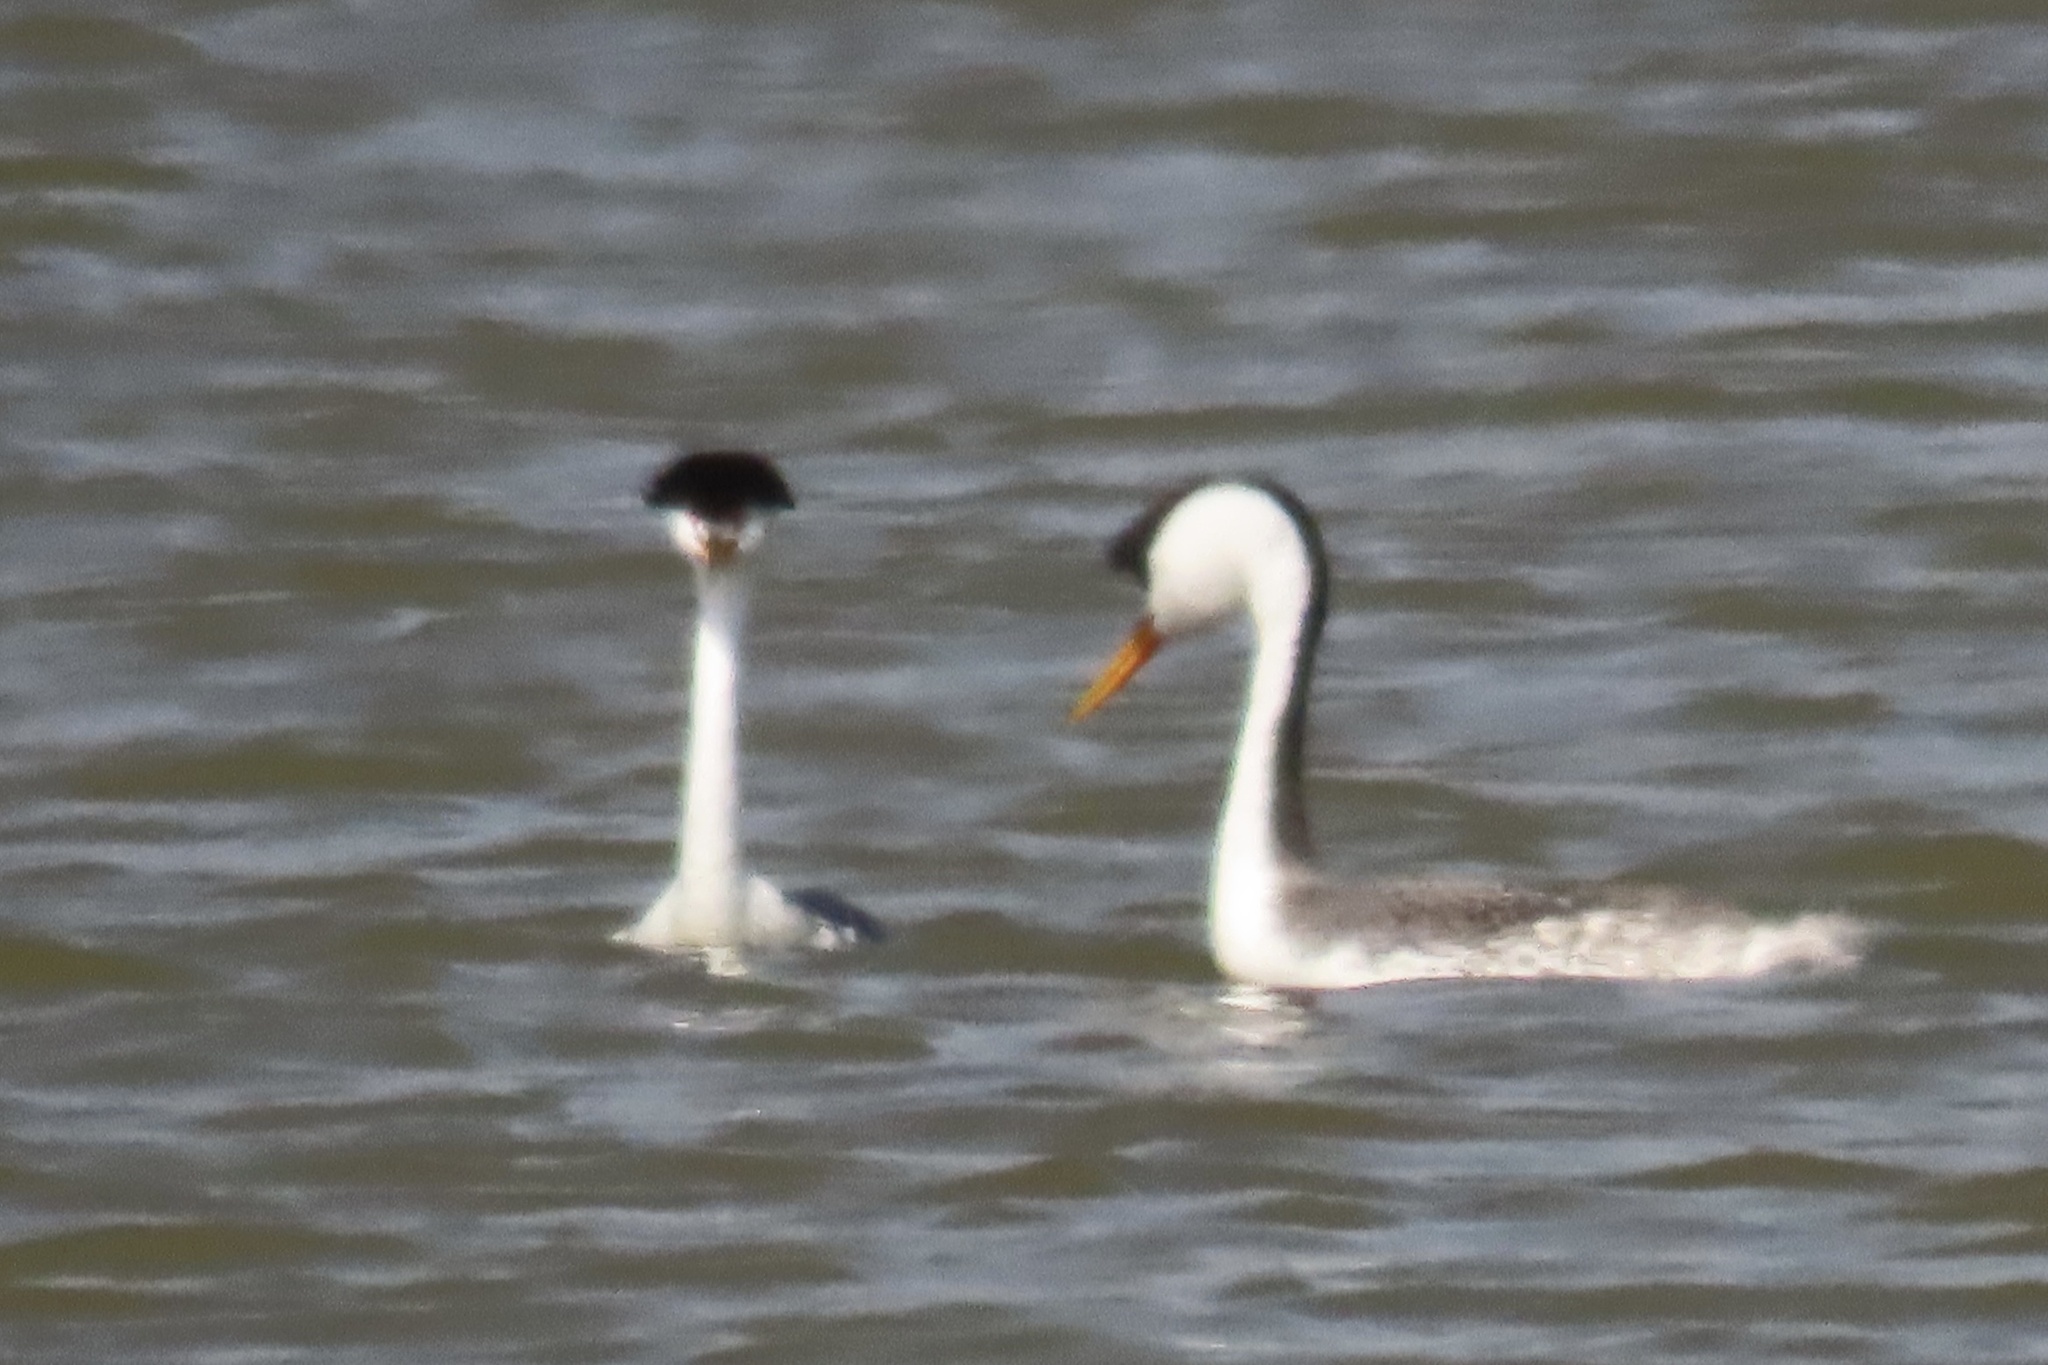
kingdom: Animalia
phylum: Chordata
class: Aves
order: Podicipediformes
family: Podicipedidae
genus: Aechmophorus
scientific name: Aechmophorus clarkii
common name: Clark's grebe
